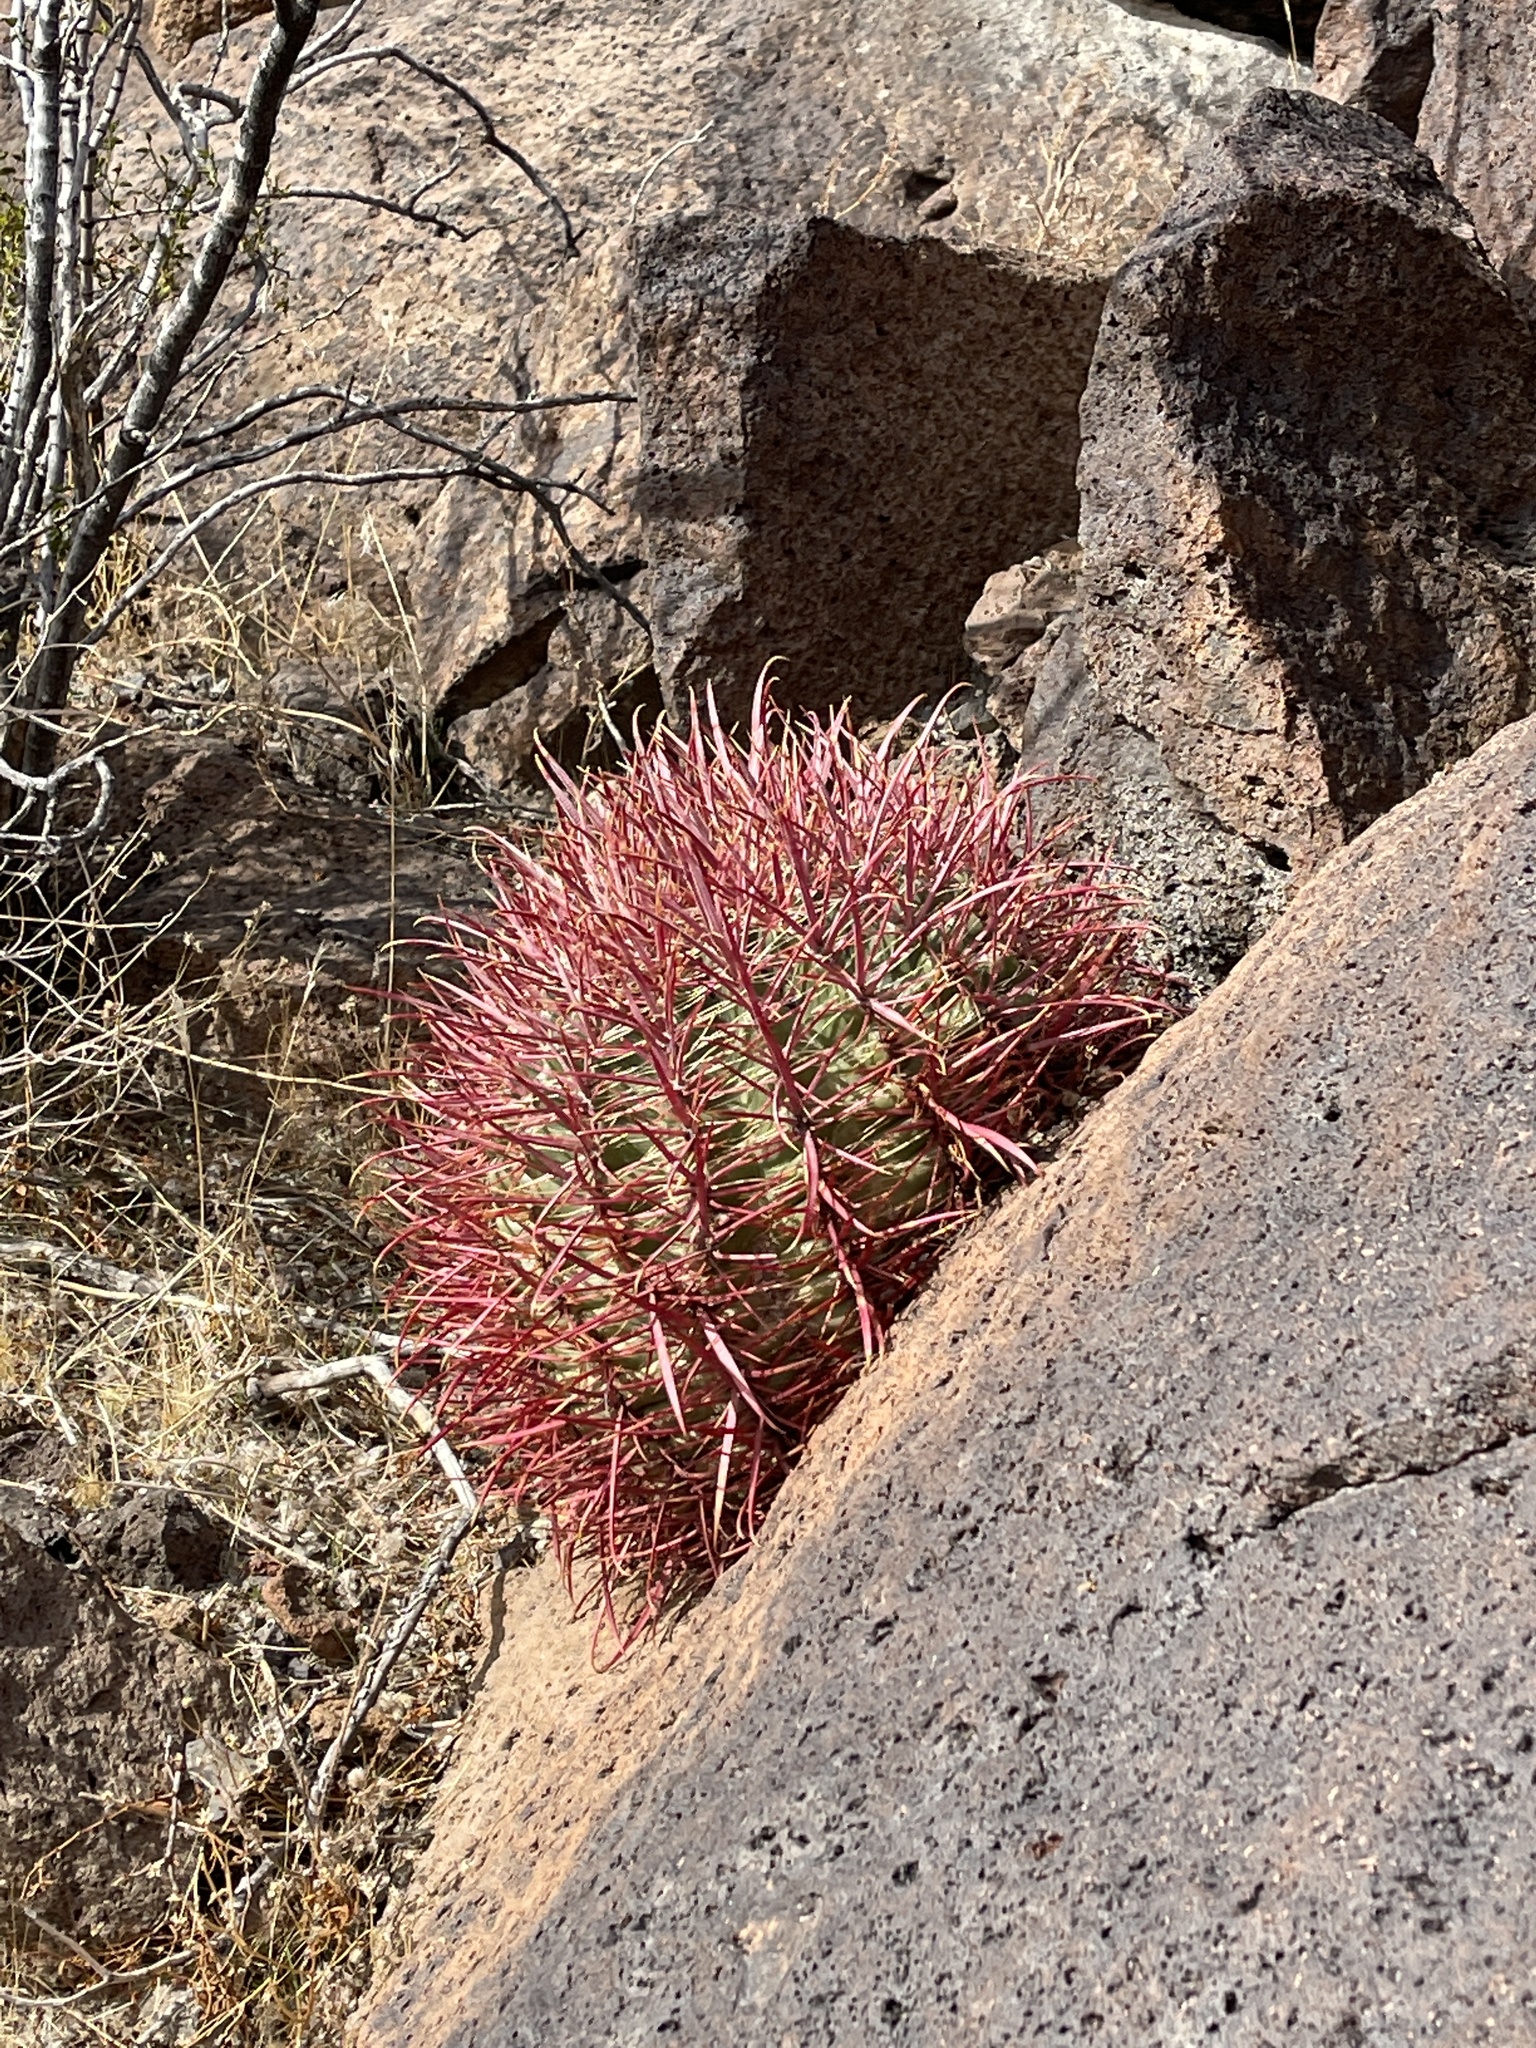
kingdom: Plantae
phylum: Tracheophyta
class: Magnoliopsida
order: Caryophyllales
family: Cactaceae
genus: Ferocactus
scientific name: Ferocactus cylindraceus
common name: California barrel cactus
